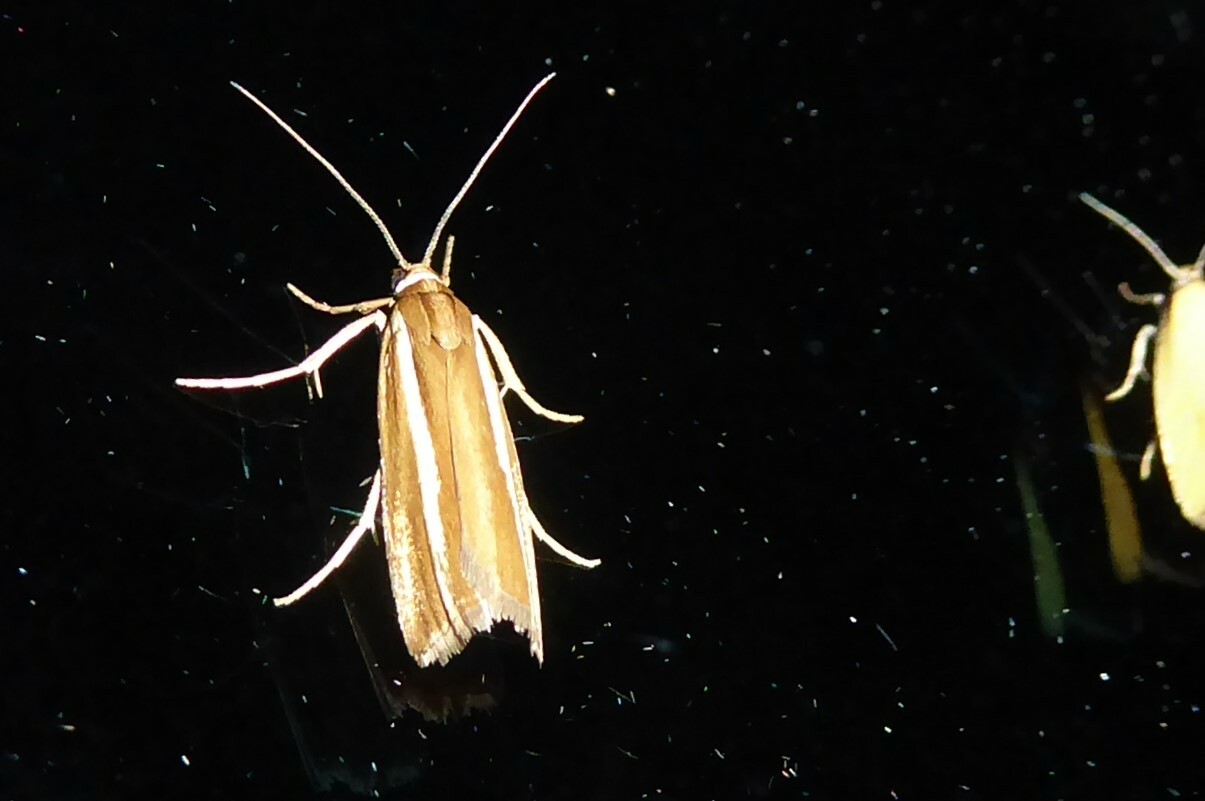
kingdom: Animalia
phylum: Arthropoda
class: Insecta
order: Lepidoptera
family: Crambidae
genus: Orocrambus
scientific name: Orocrambus aethonellus
